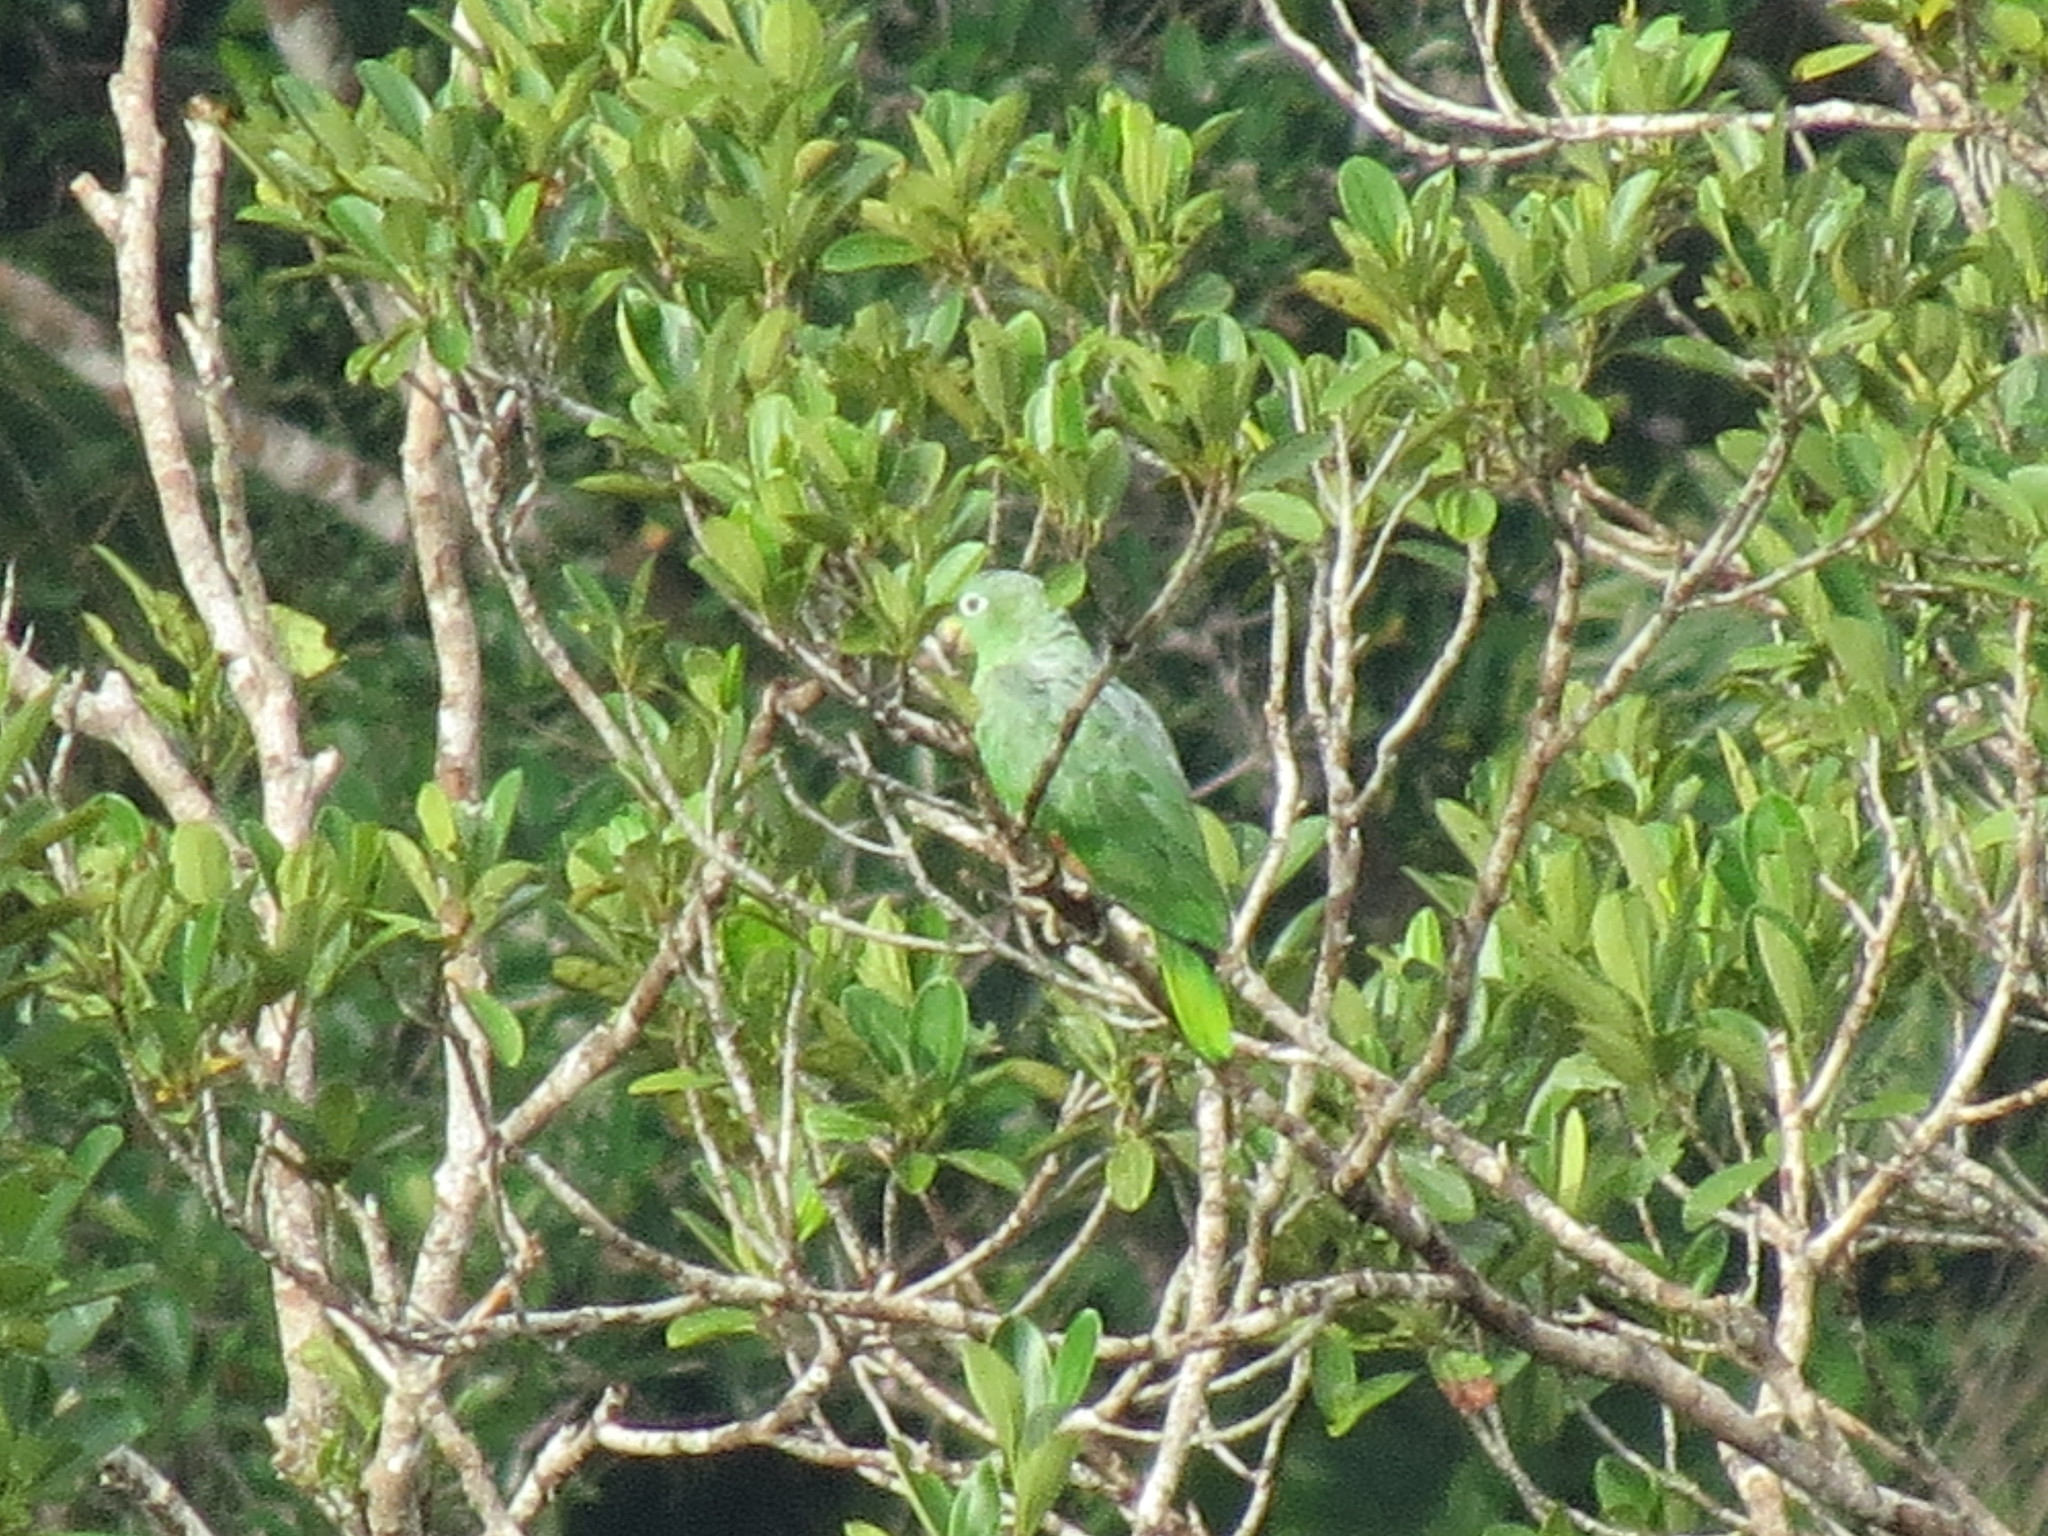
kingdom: Animalia
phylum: Chordata
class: Aves
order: Psittaciformes
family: Psittacidae
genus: Amazona
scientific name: Amazona farinosa
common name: Mealy parrot
